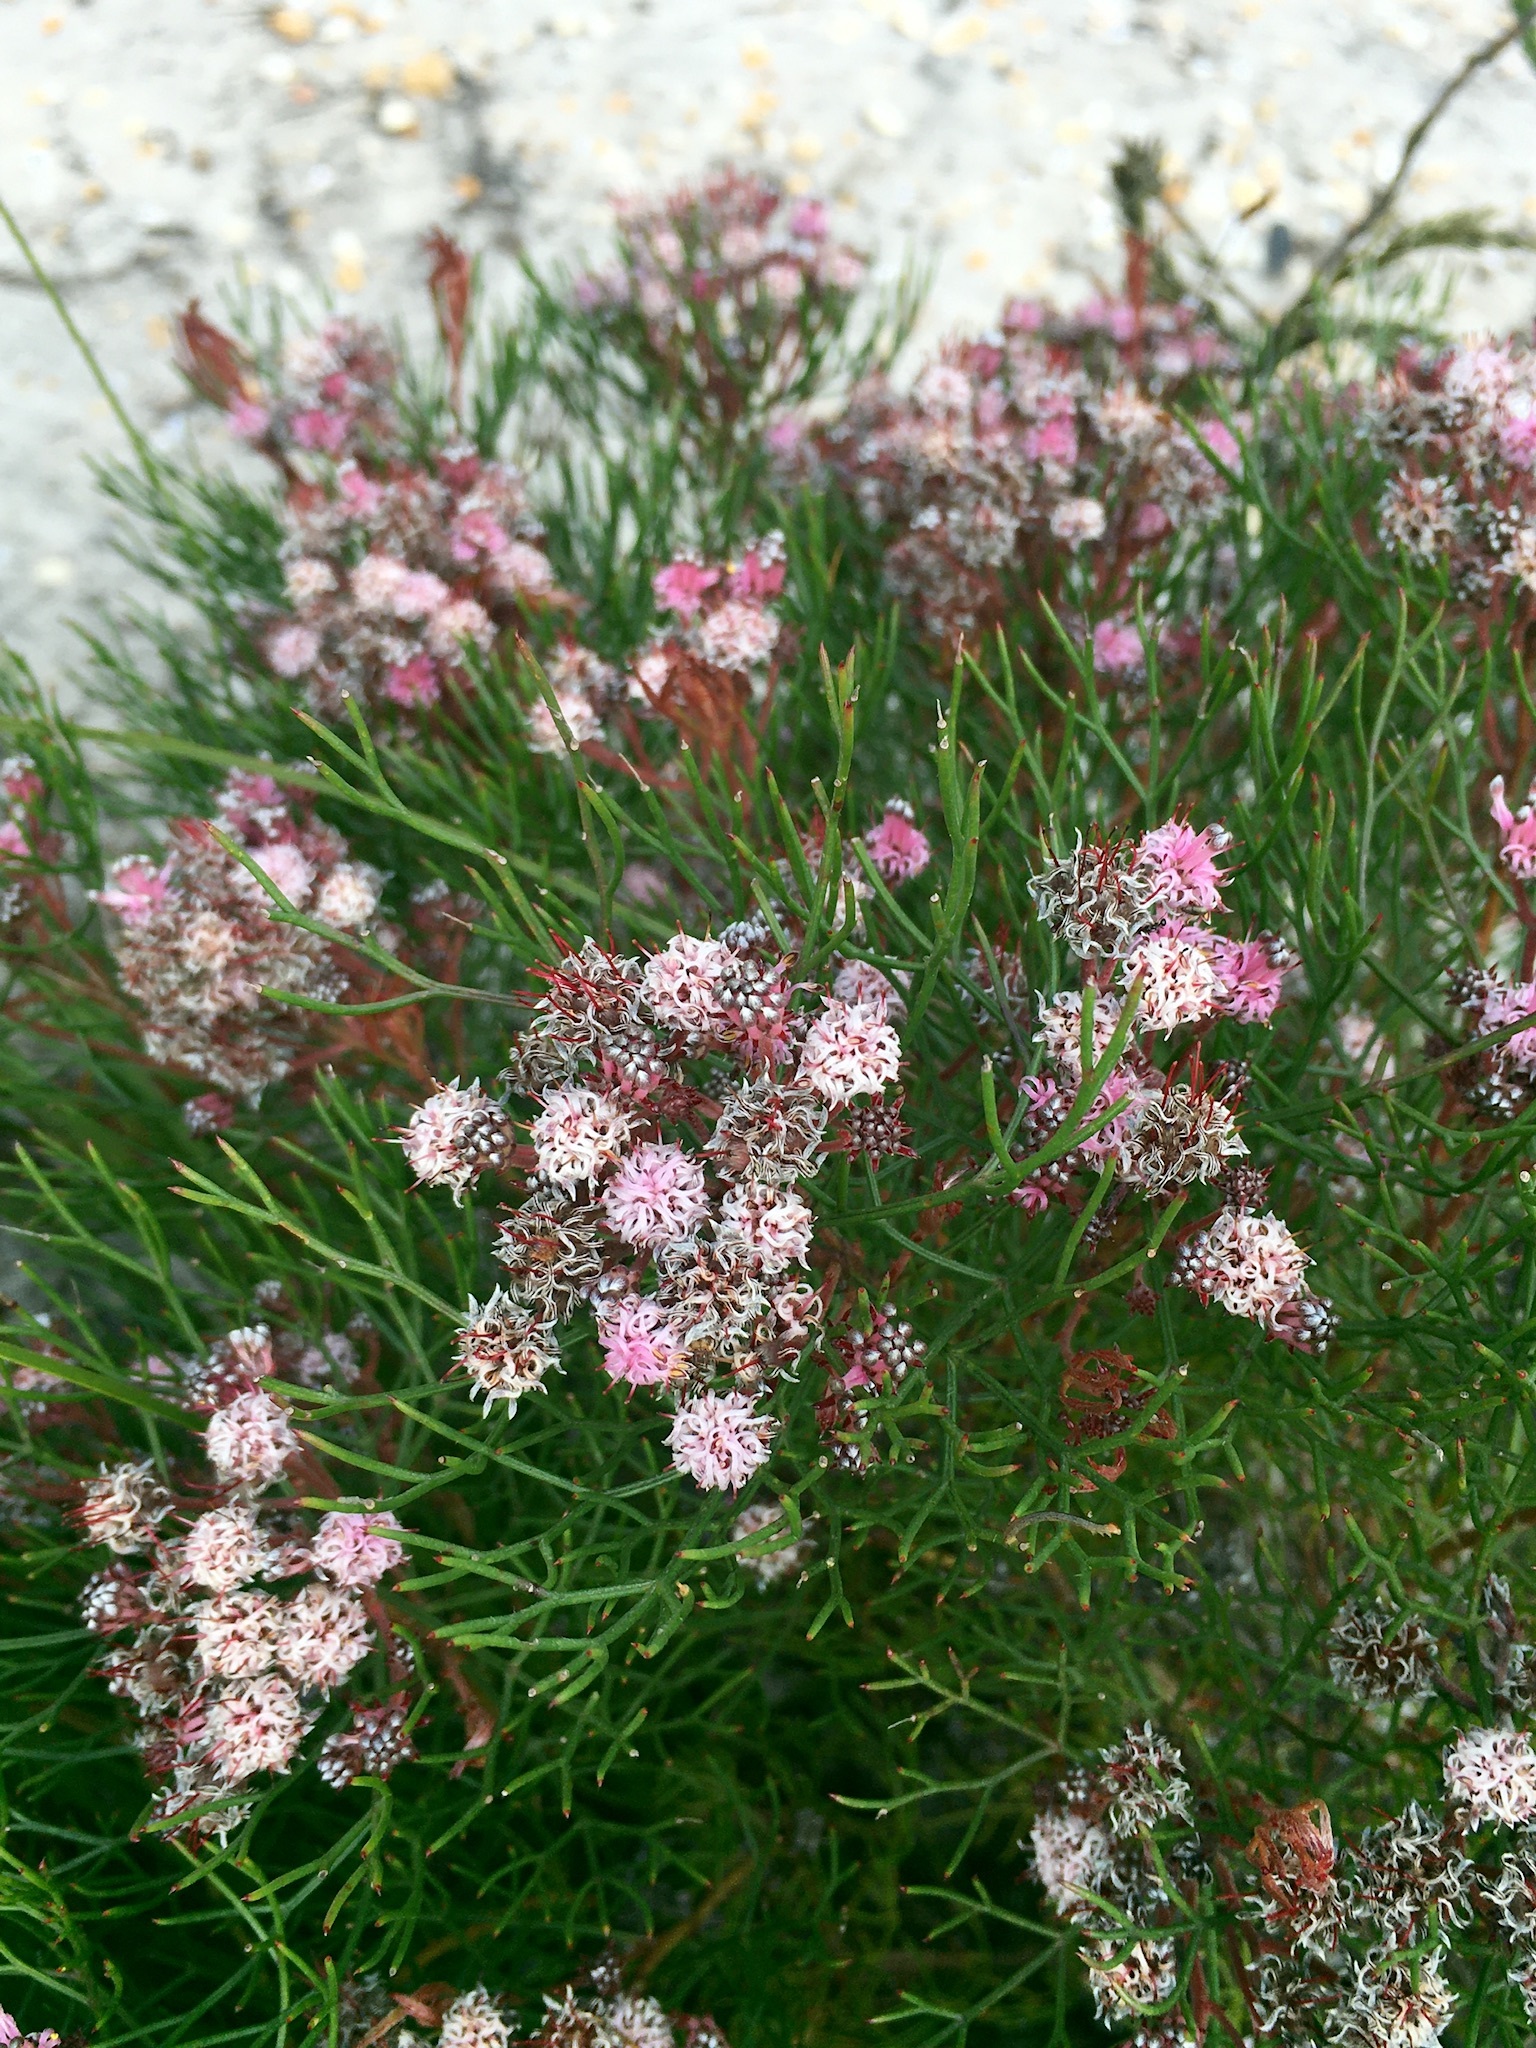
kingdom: Plantae
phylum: Tracheophyta
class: Magnoliopsida
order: Proteales
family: Proteaceae
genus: Serruria
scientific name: Serruria fasciflora
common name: Common pin spiderhead
